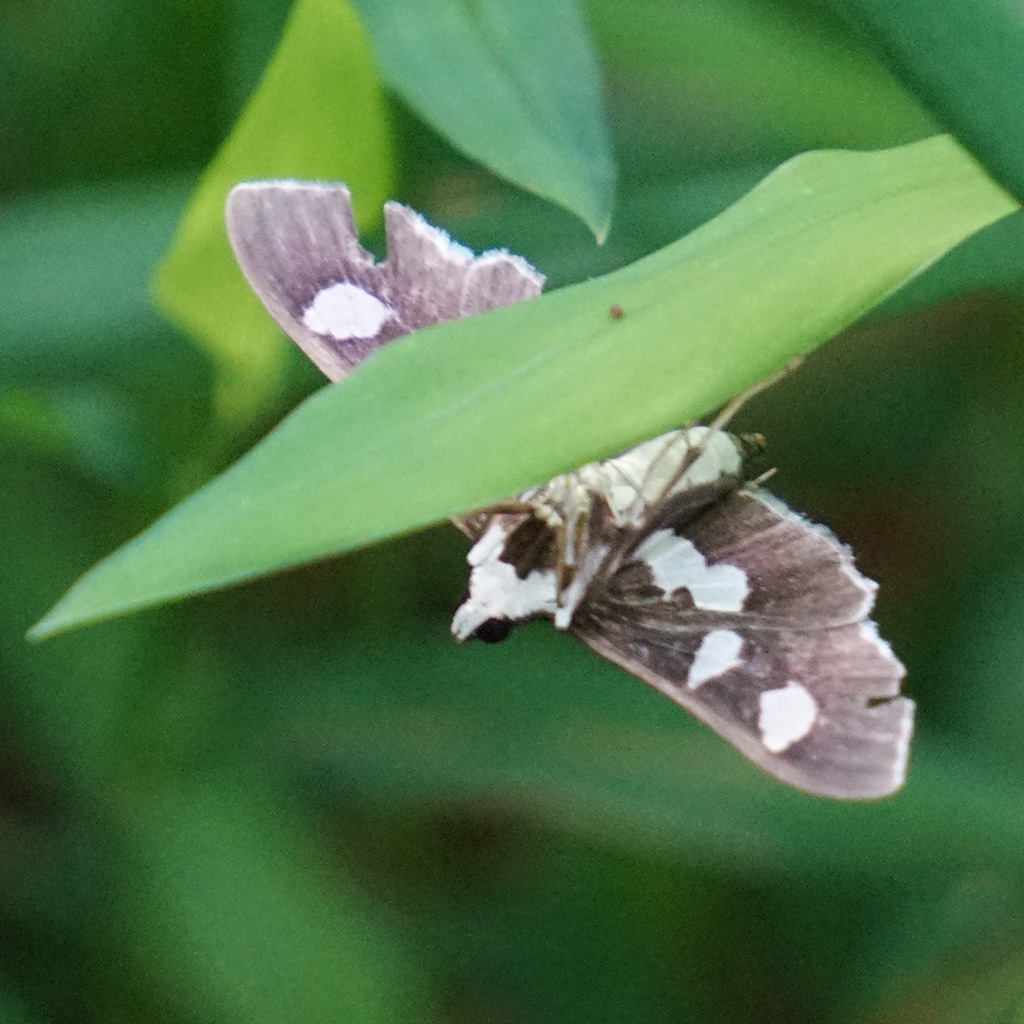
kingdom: Animalia
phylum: Arthropoda
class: Insecta
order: Lepidoptera
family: Crambidae
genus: Desmia
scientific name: Desmia funeralis
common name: Grape leaf folder moth
